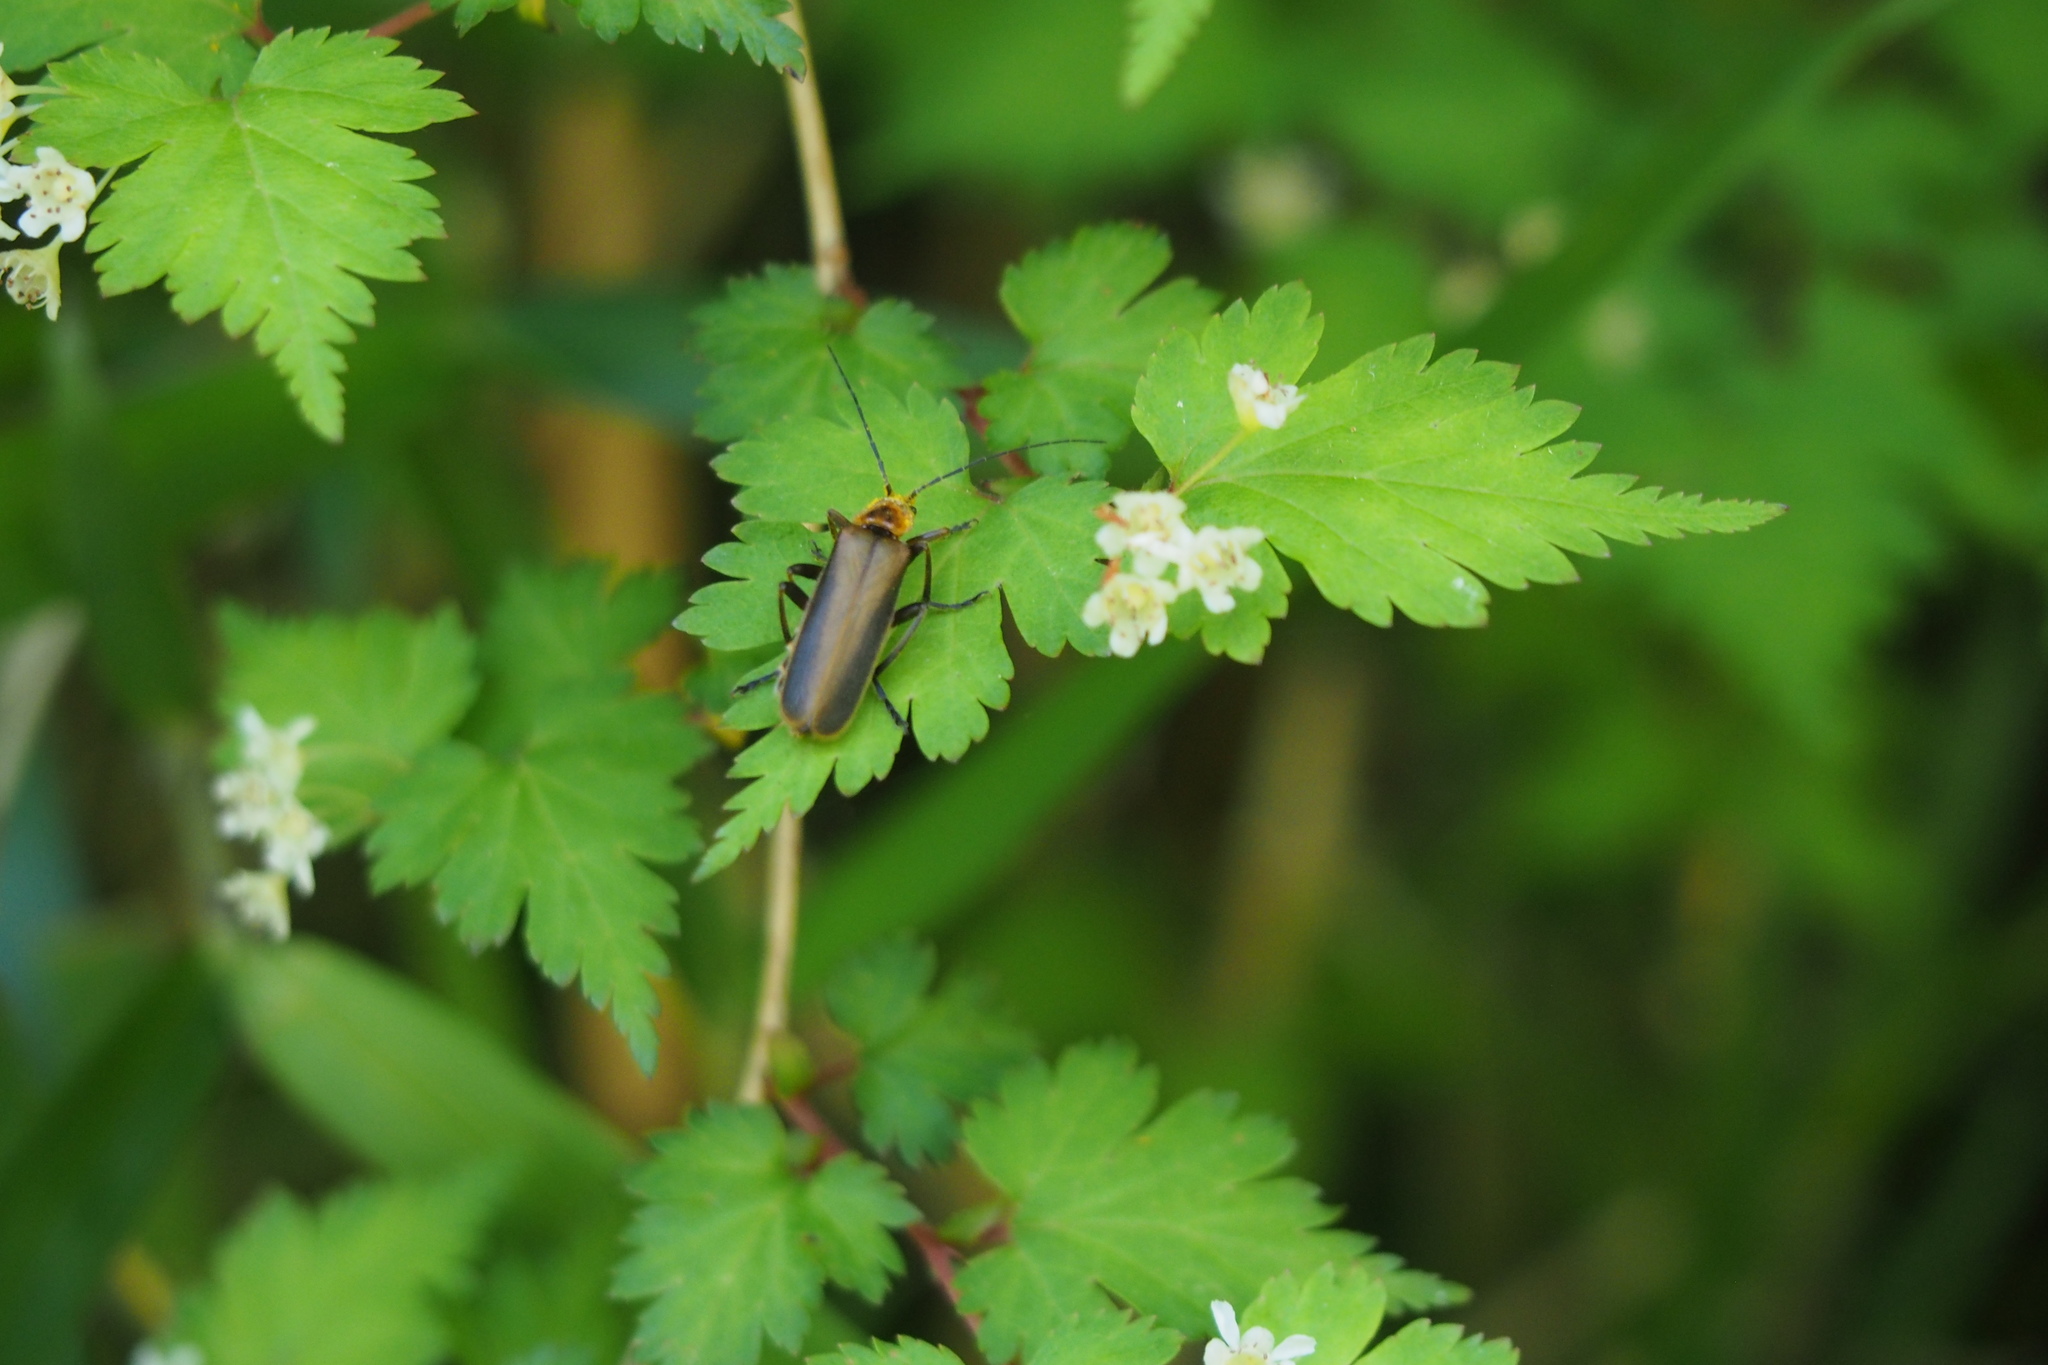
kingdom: Animalia
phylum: Arthropoda
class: Insecta
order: Coleoptera
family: Cantharidae
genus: Prothemus
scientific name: Prothemus
